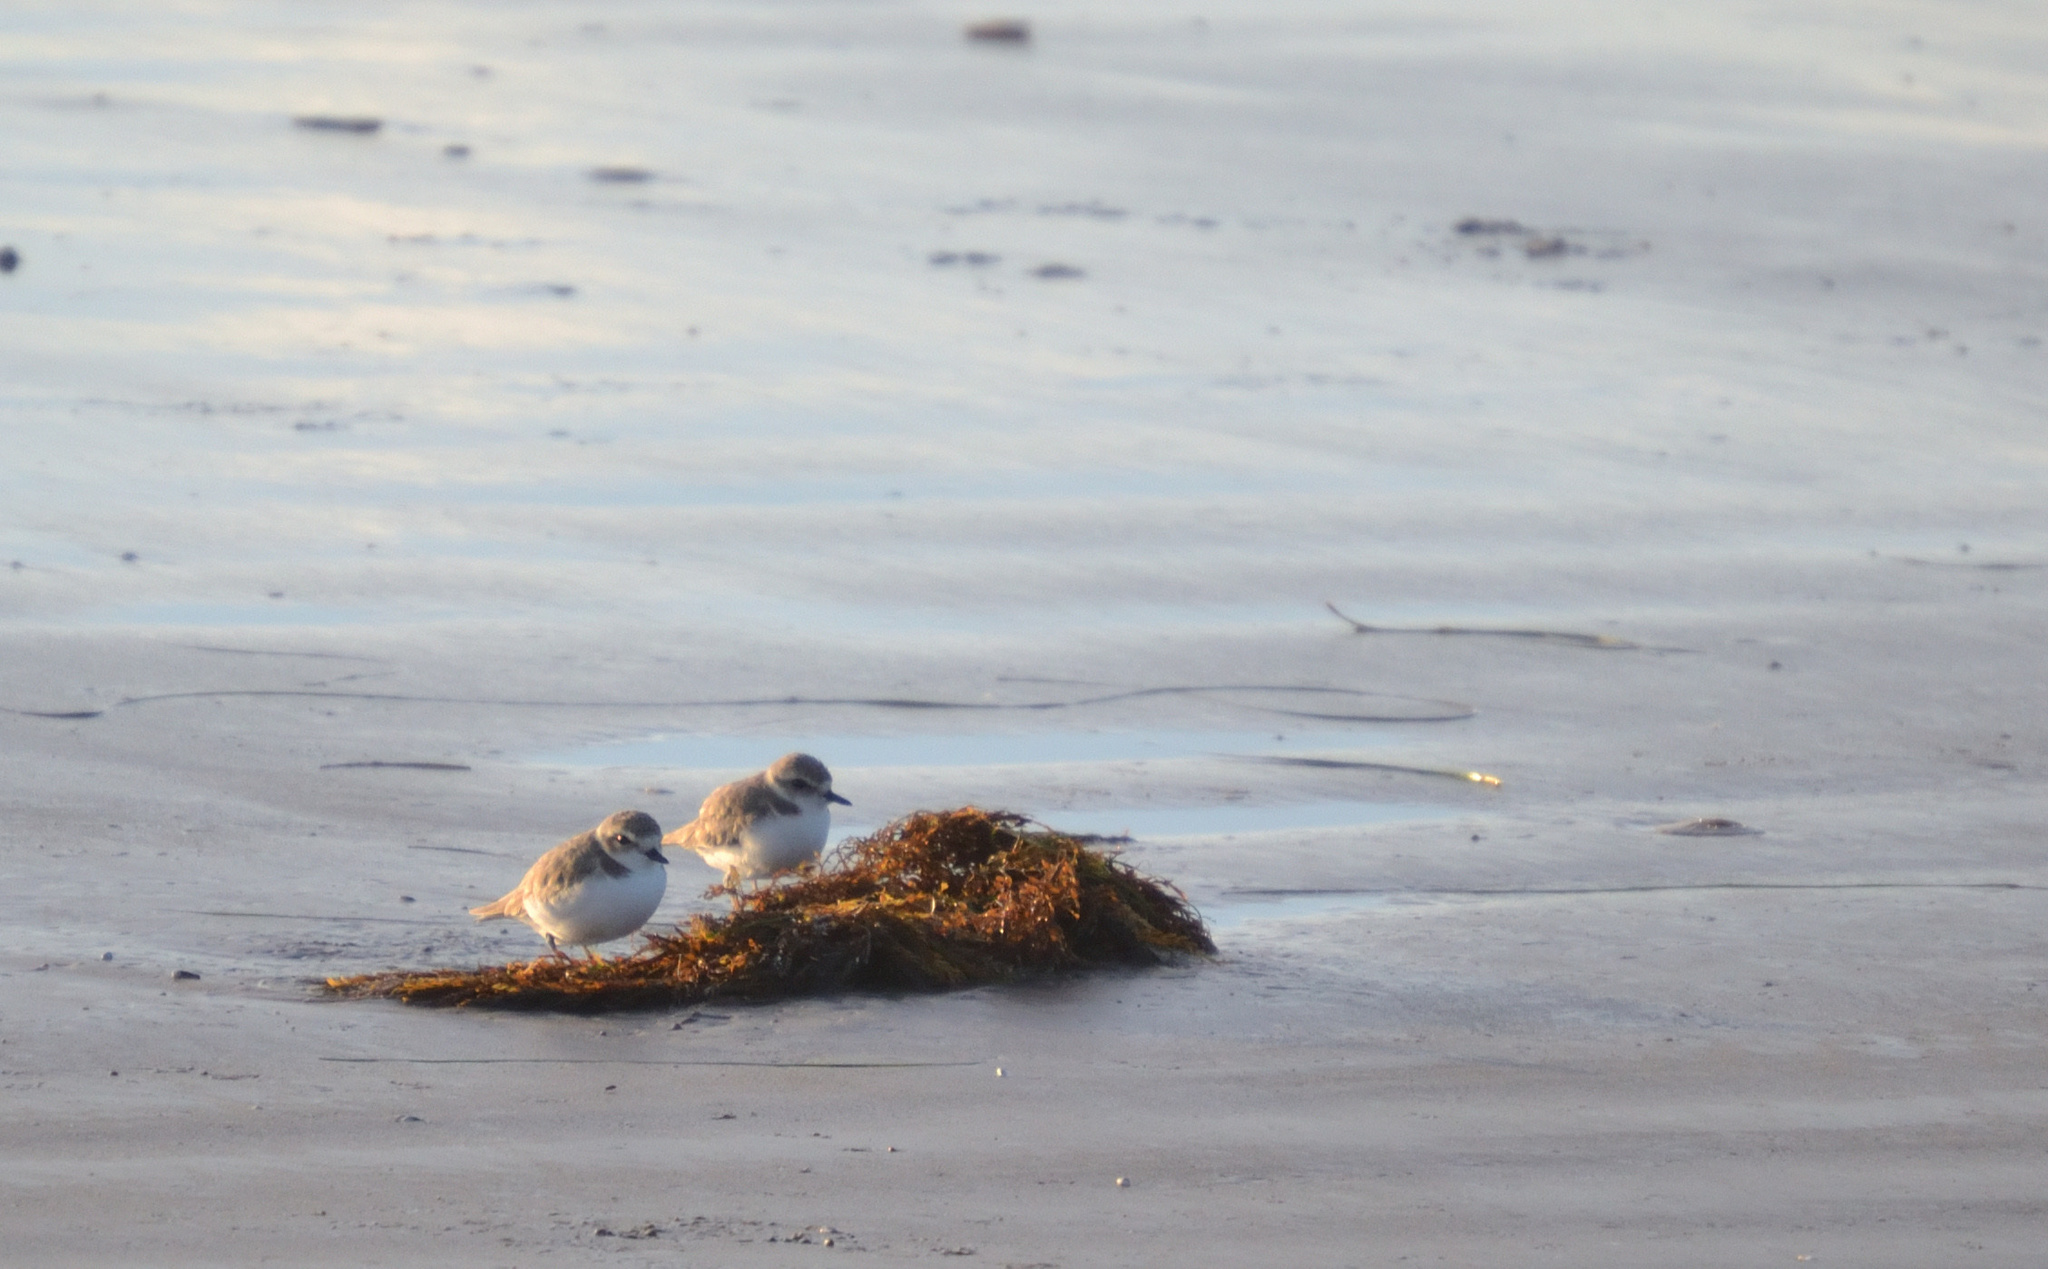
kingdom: Animalia
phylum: Chordata
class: Aves
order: Charadriiformes
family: Charadriidae
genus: Anarhynchus
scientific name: Anarhynchus
